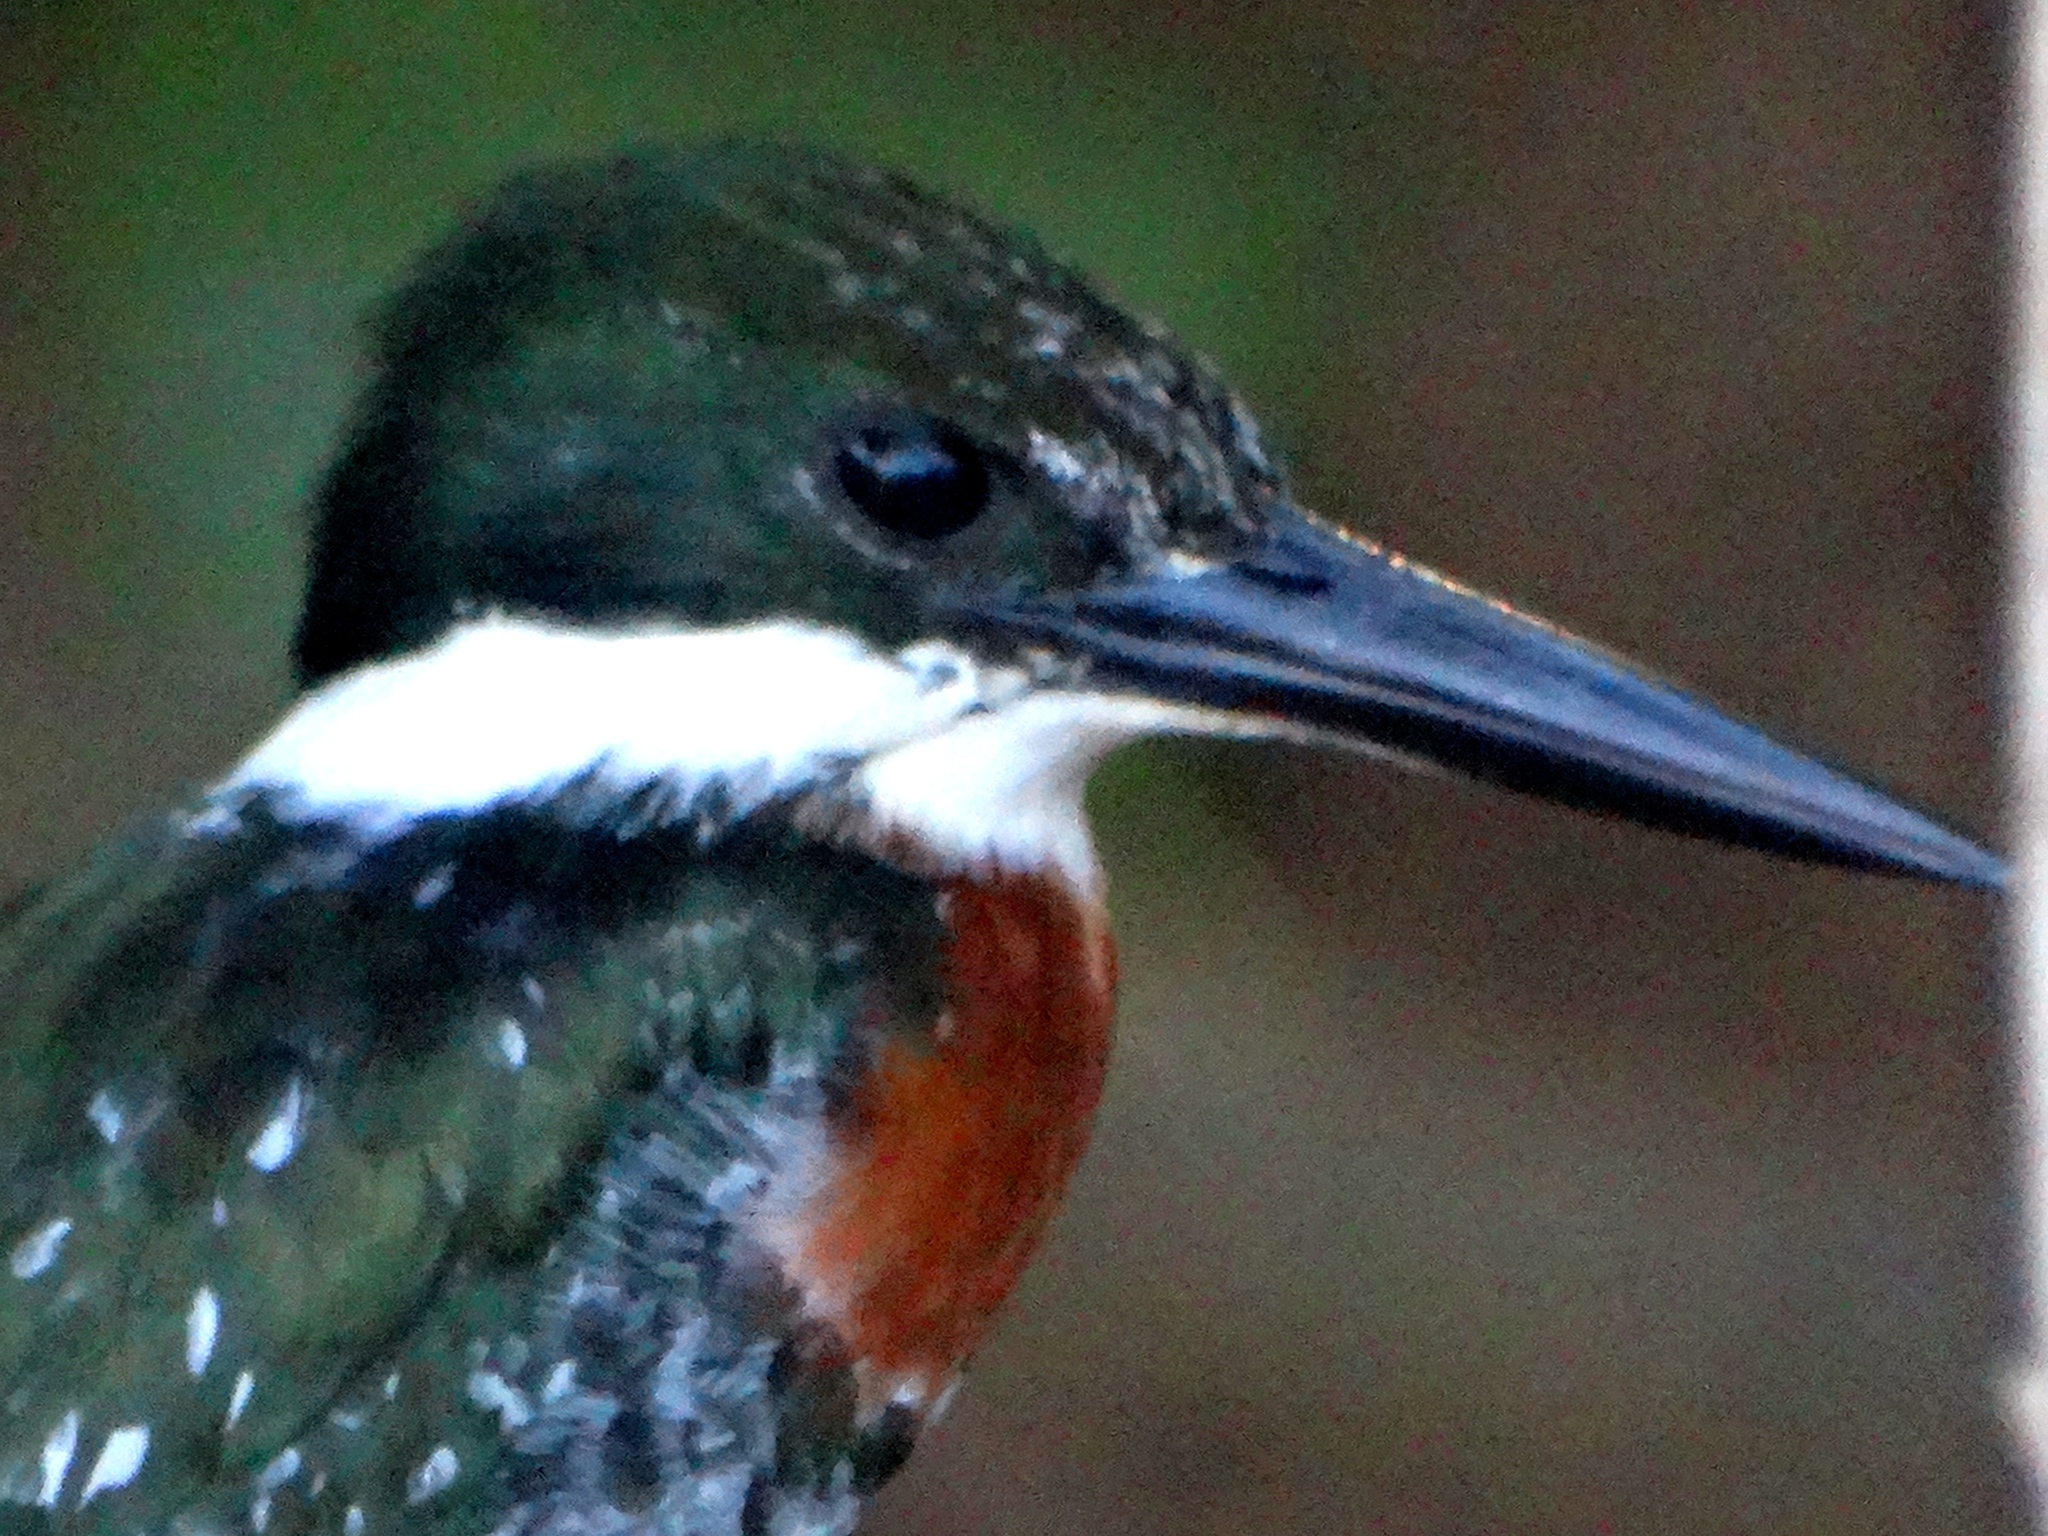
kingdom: Animalia
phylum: Chordata
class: Aves
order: Coraciiformes
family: Alcedinidae
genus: Chloroceryle
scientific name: Chloroceryle americana
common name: Green kingfisher
